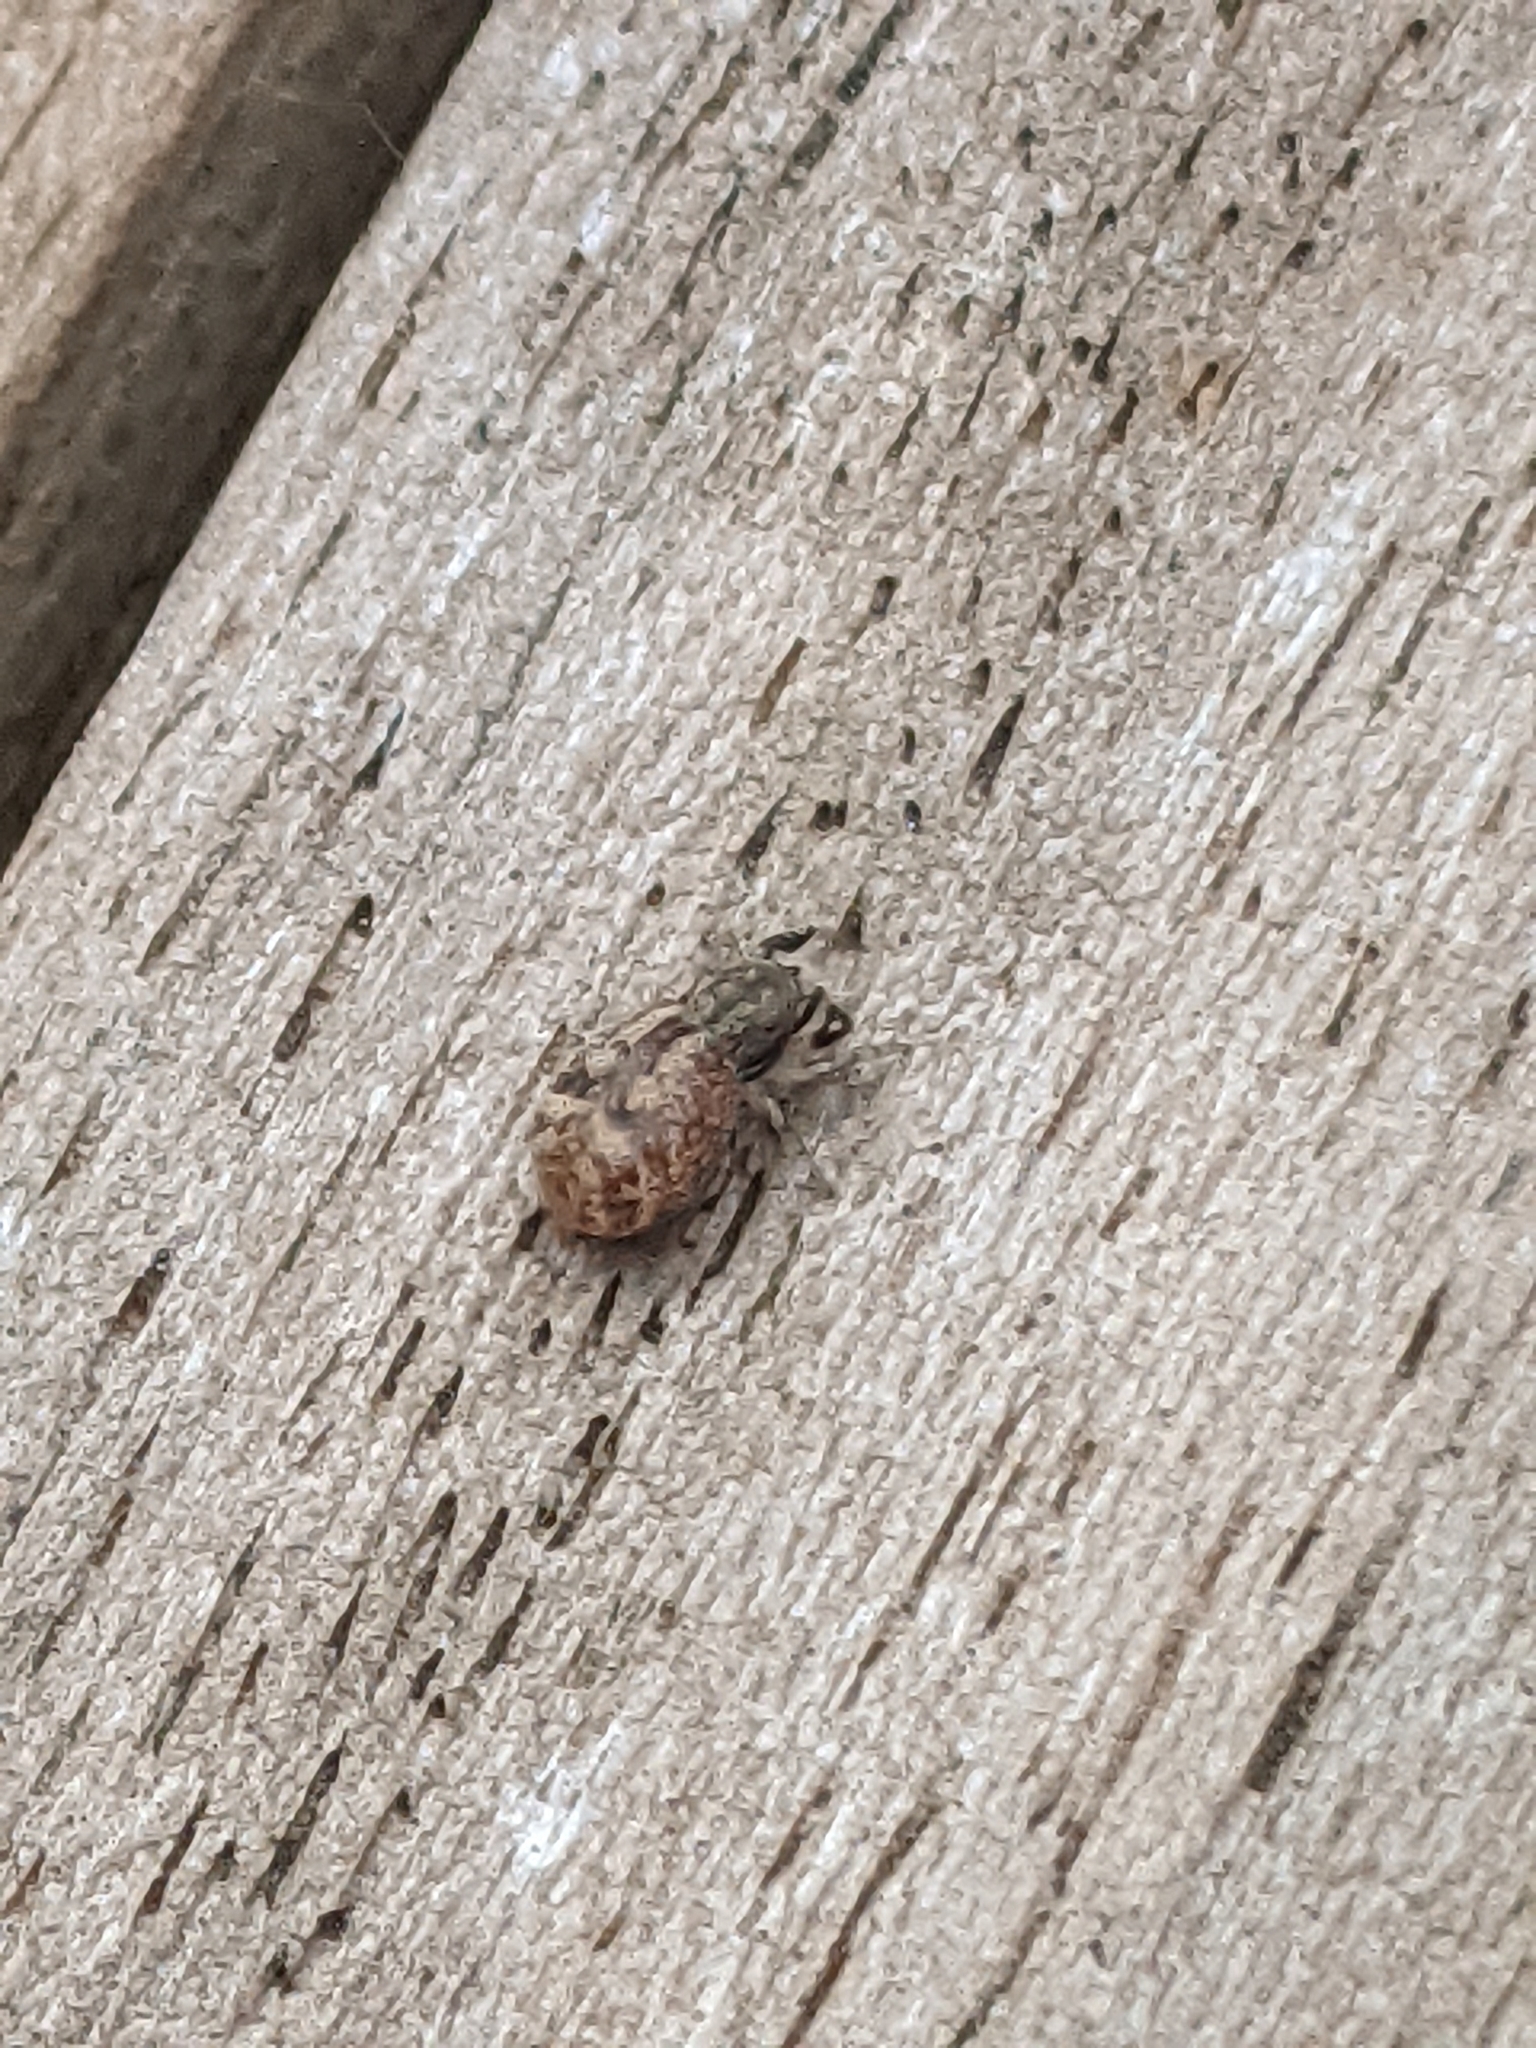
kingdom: Animalia
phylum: Arthropoda
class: Arachnida
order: Araneae
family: Salticidae
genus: Ballus
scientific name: Ballus chalybeius
